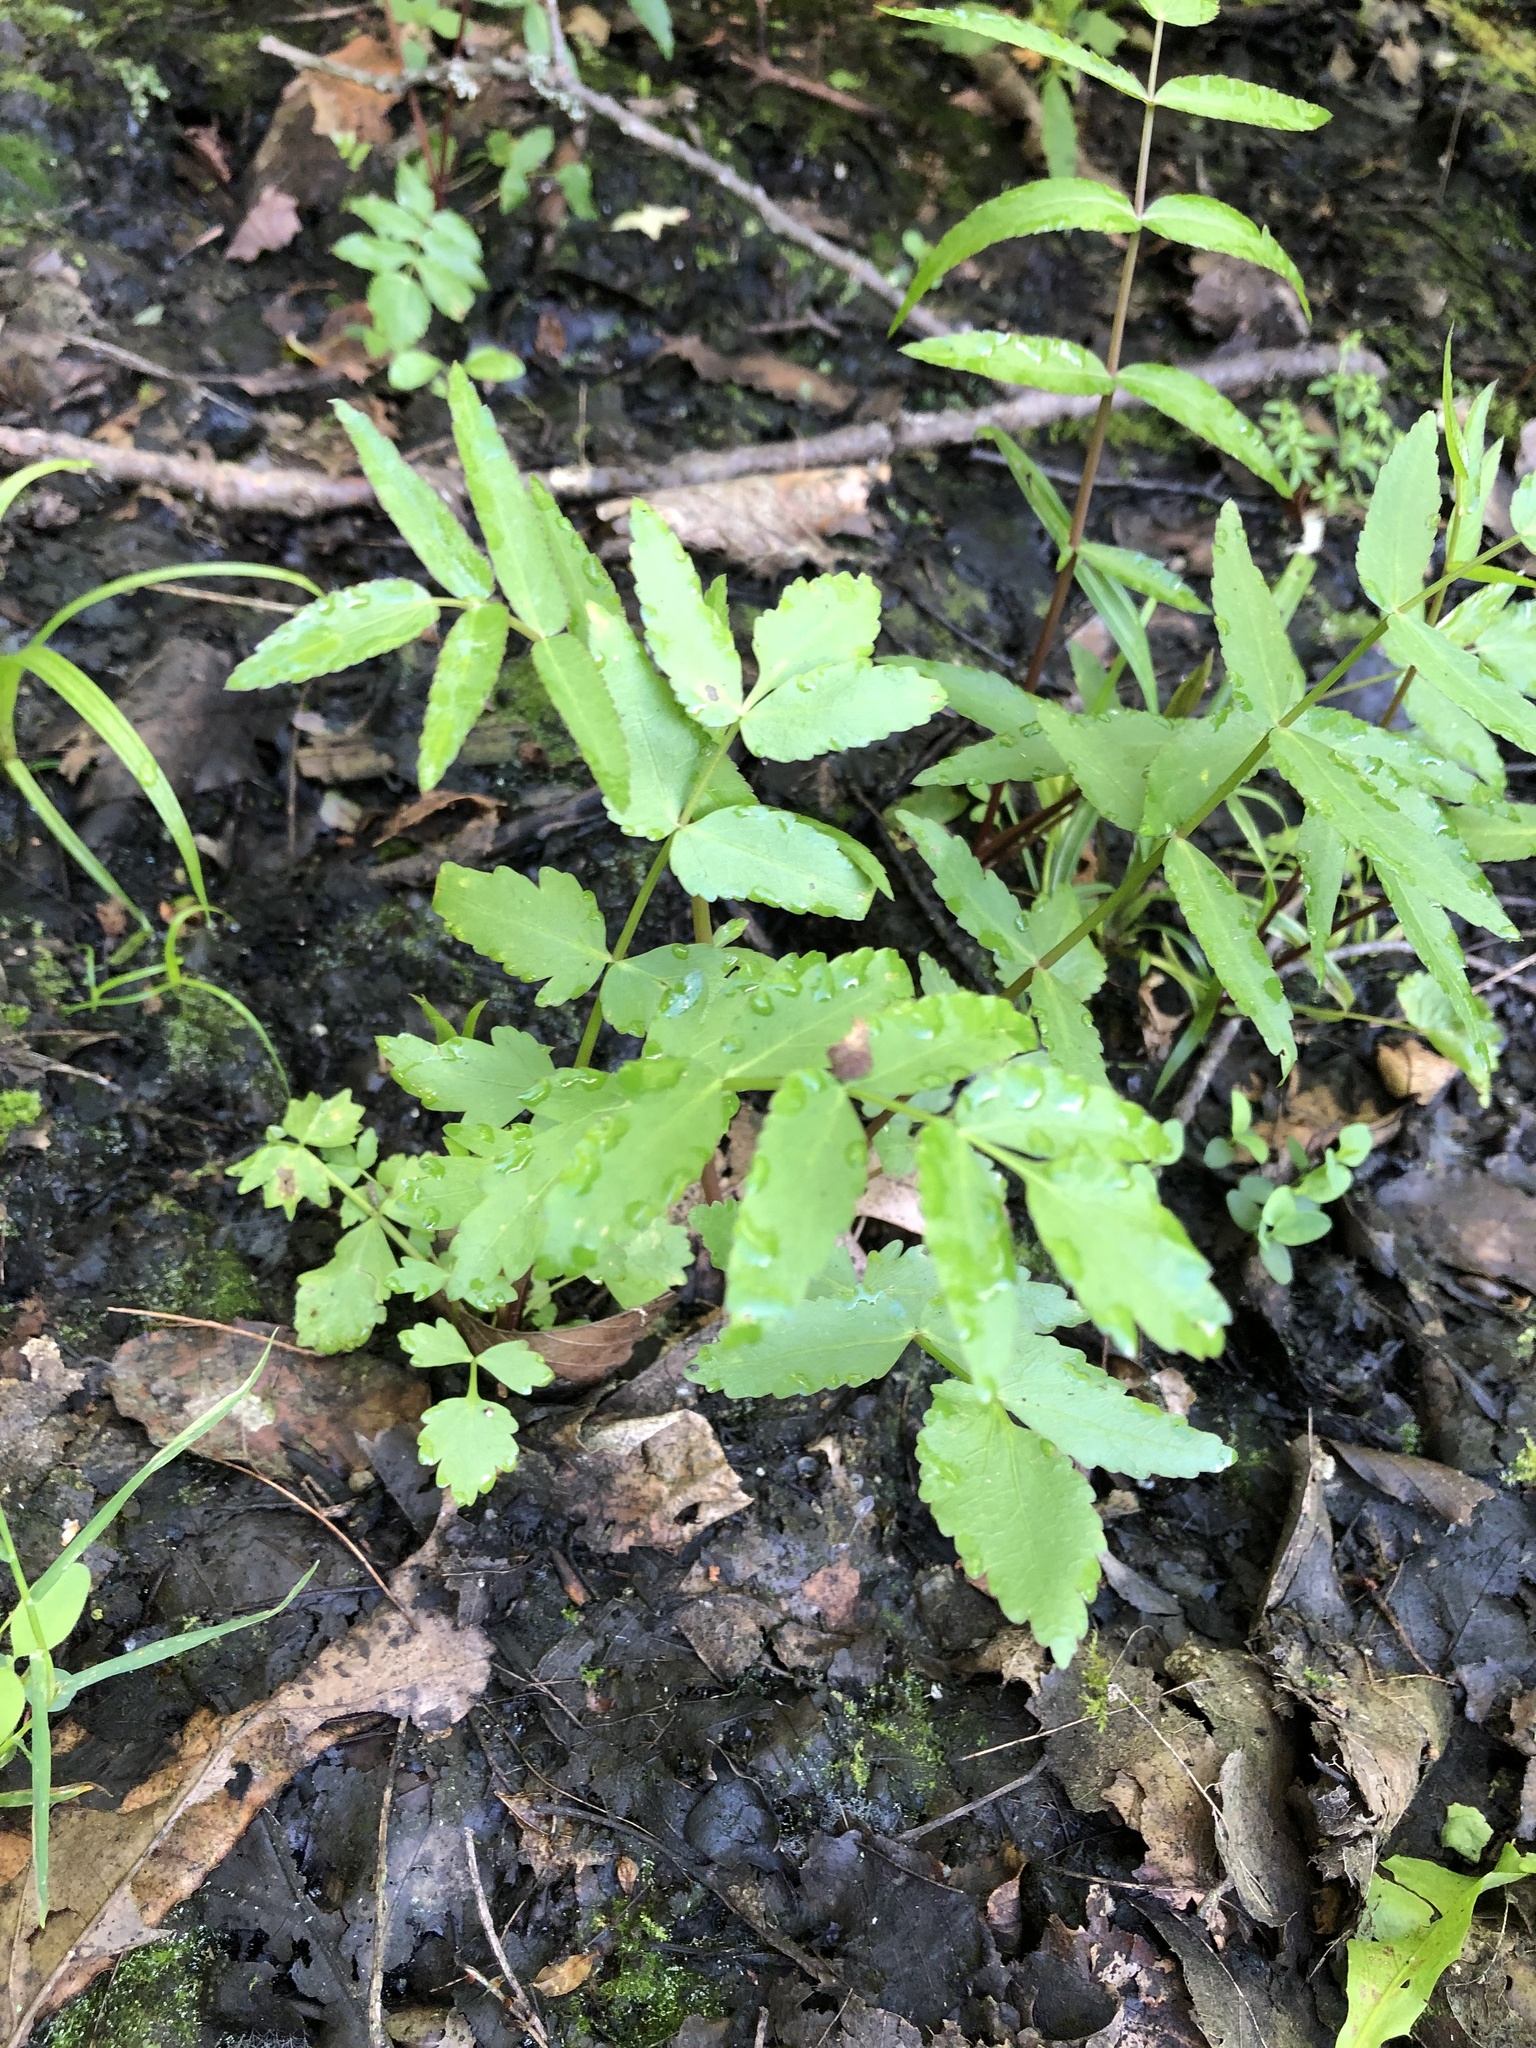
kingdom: Plantae
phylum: Tracheophyta
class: Magnoliopsida
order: Apiales
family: Apiaceae
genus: Sium
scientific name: Sium suave
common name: Hemlock water-parsnip
